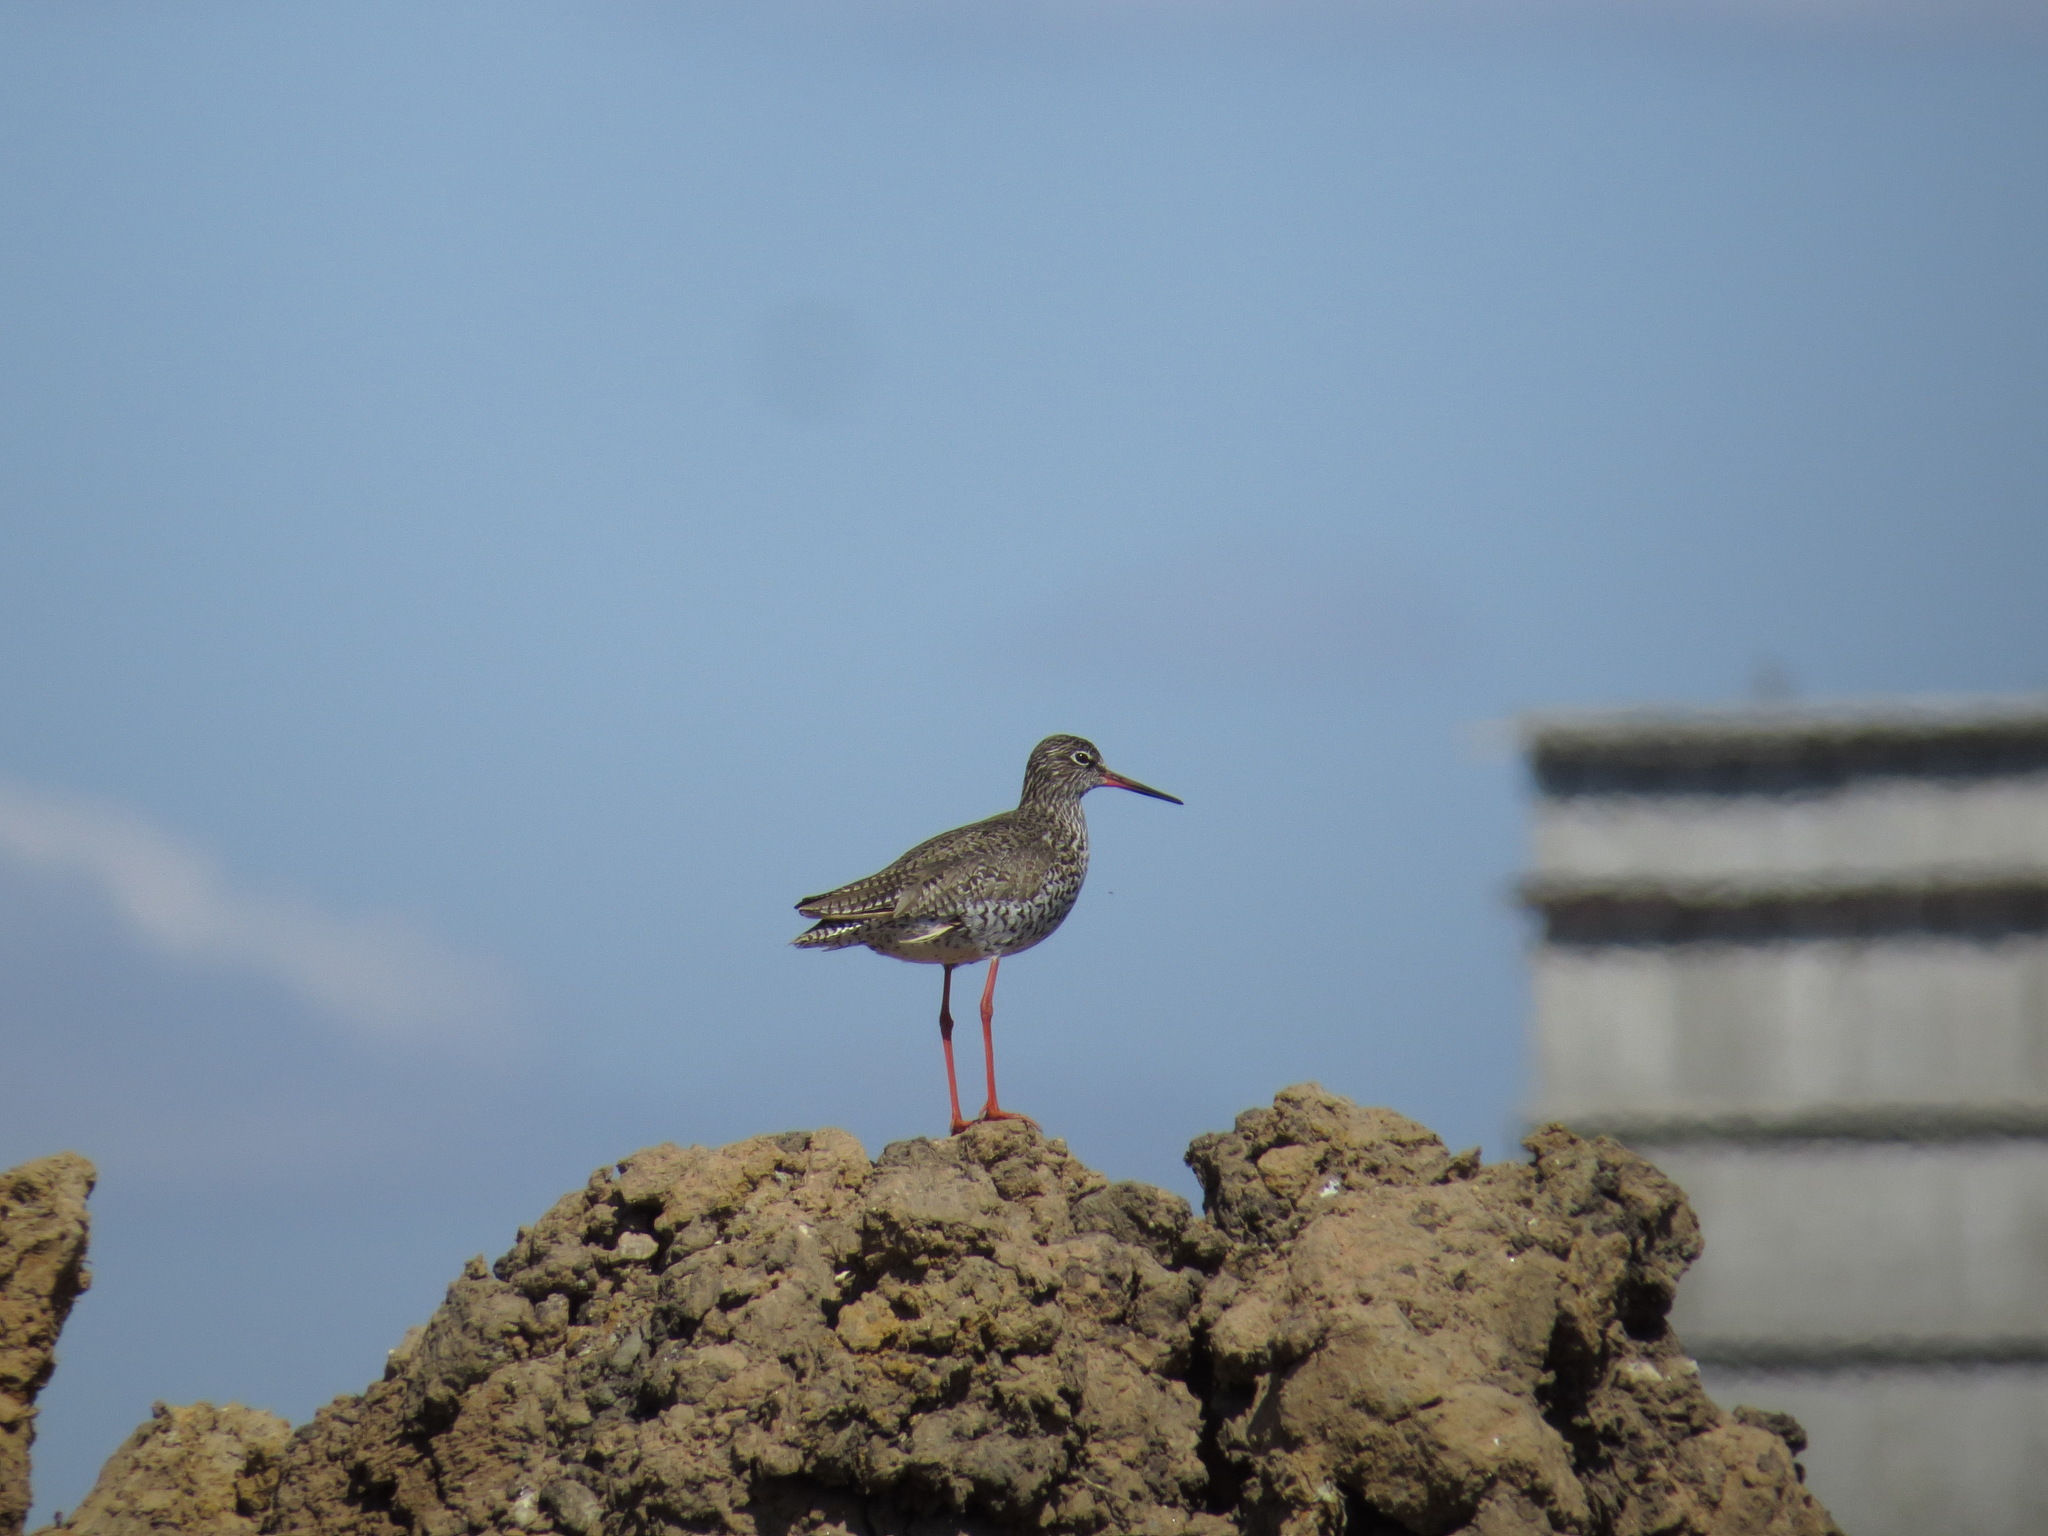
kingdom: Animalia
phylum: Chordata
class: Aves
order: Charadriiformes
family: Scolopacidae
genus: Tringa
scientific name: Tringa totanus
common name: Common redshank
